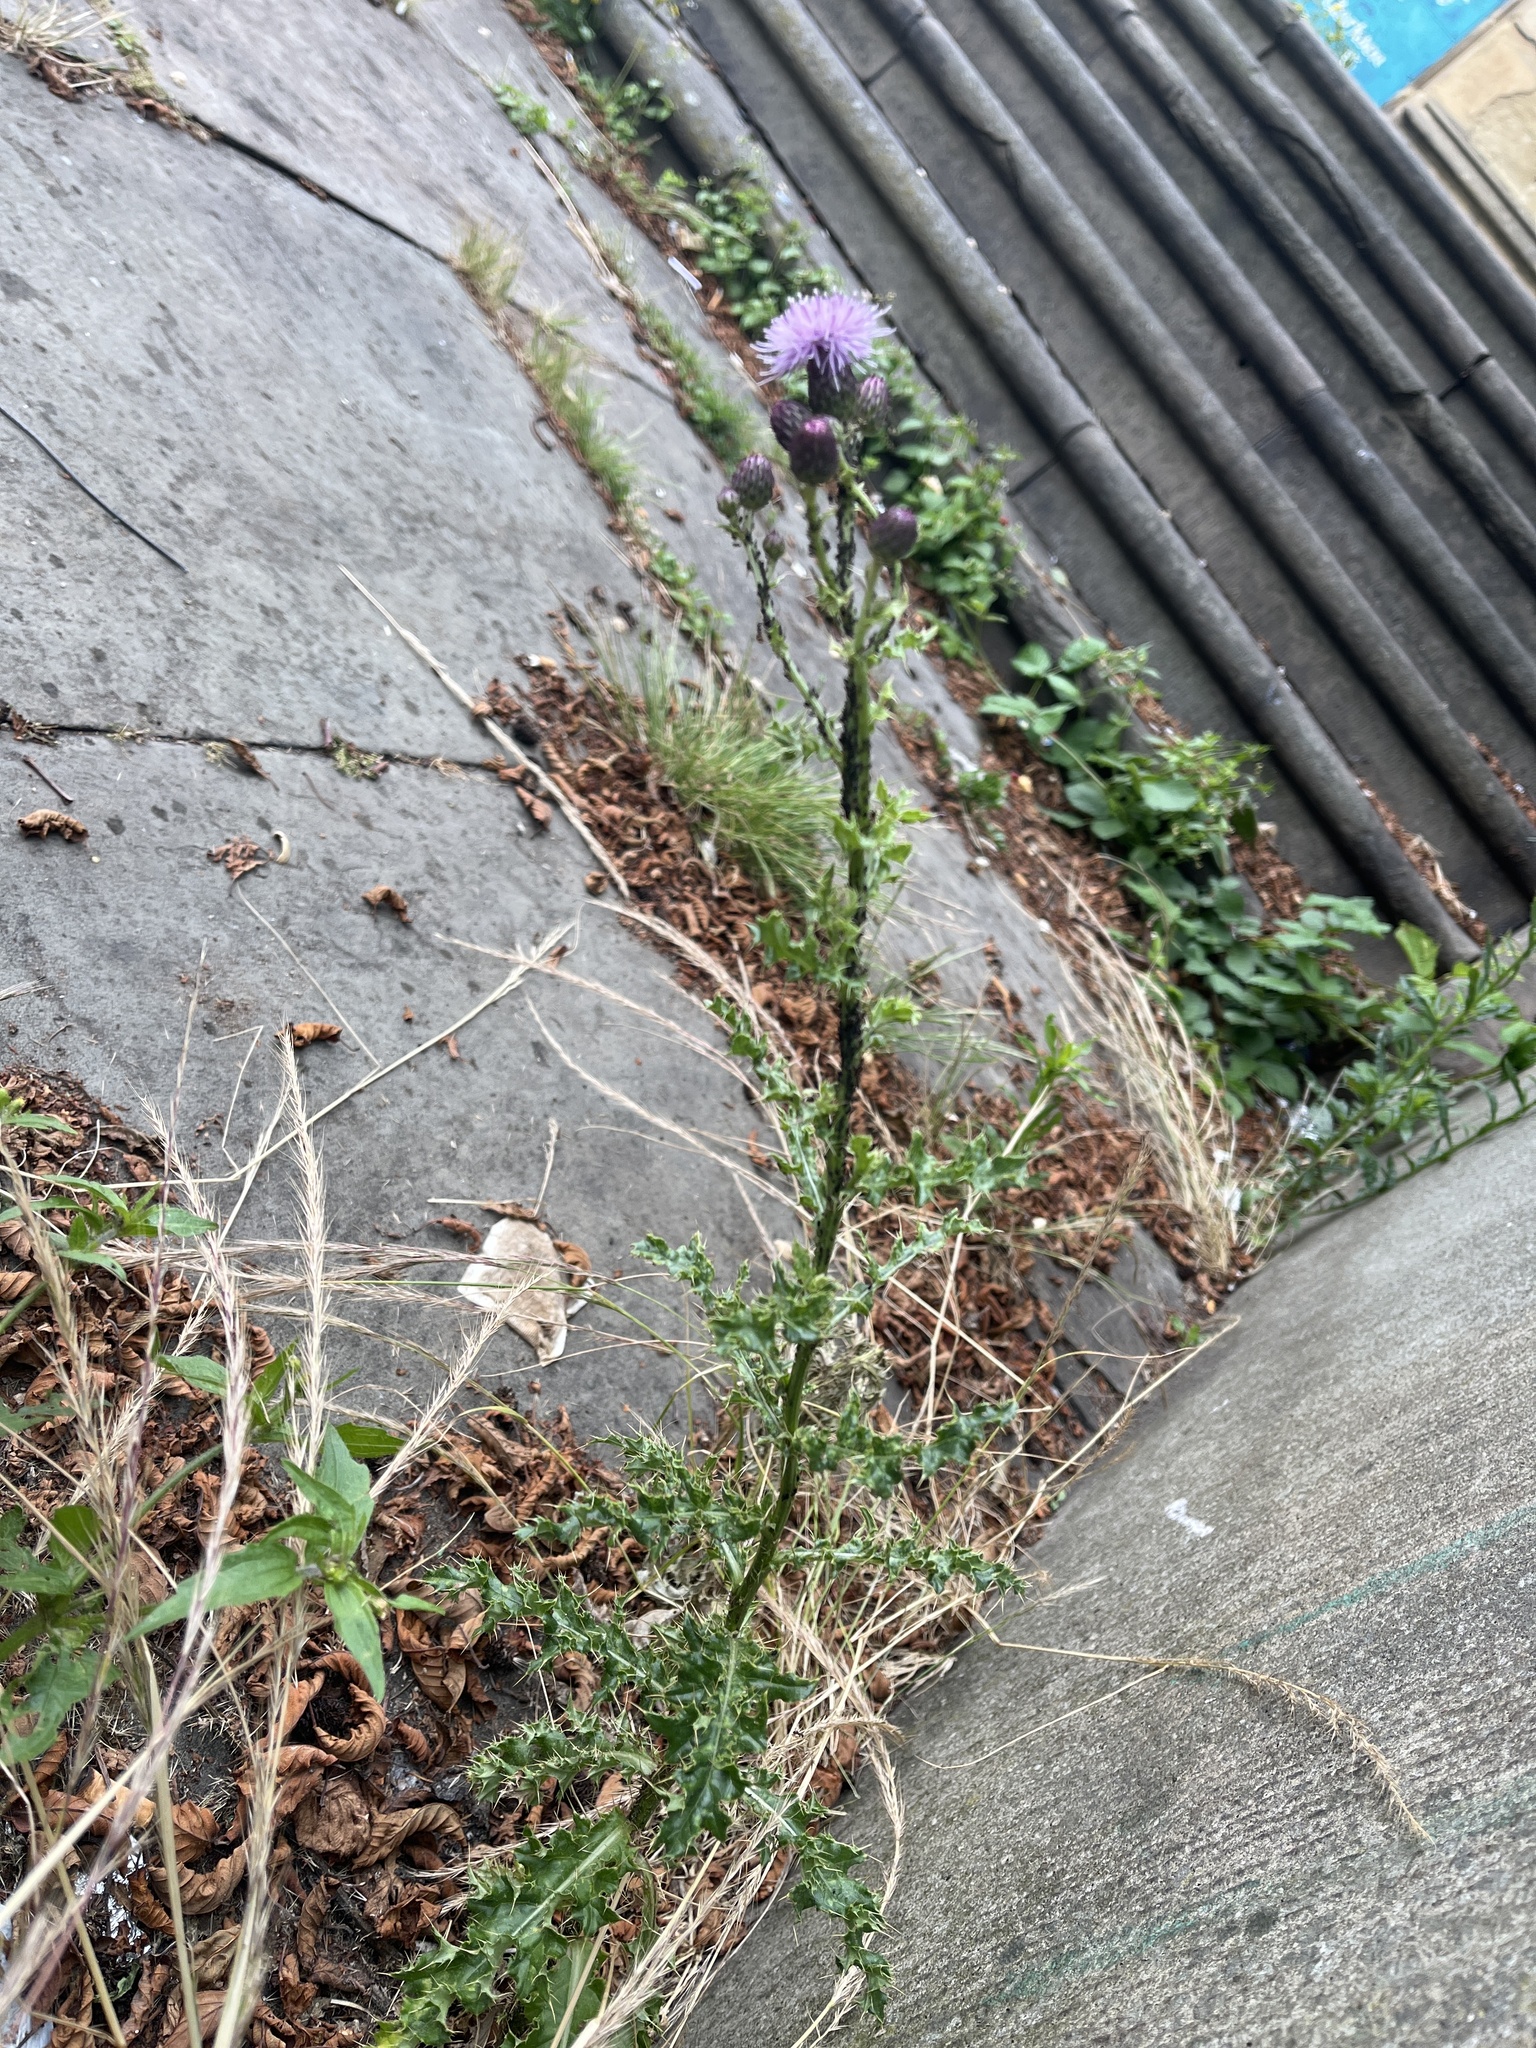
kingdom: Plantae
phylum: Tracheophyta
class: Magnoliopsida
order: Asterales
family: Asteraceae
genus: Cirsium
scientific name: Cirsium arvense
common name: Creeping thistle
